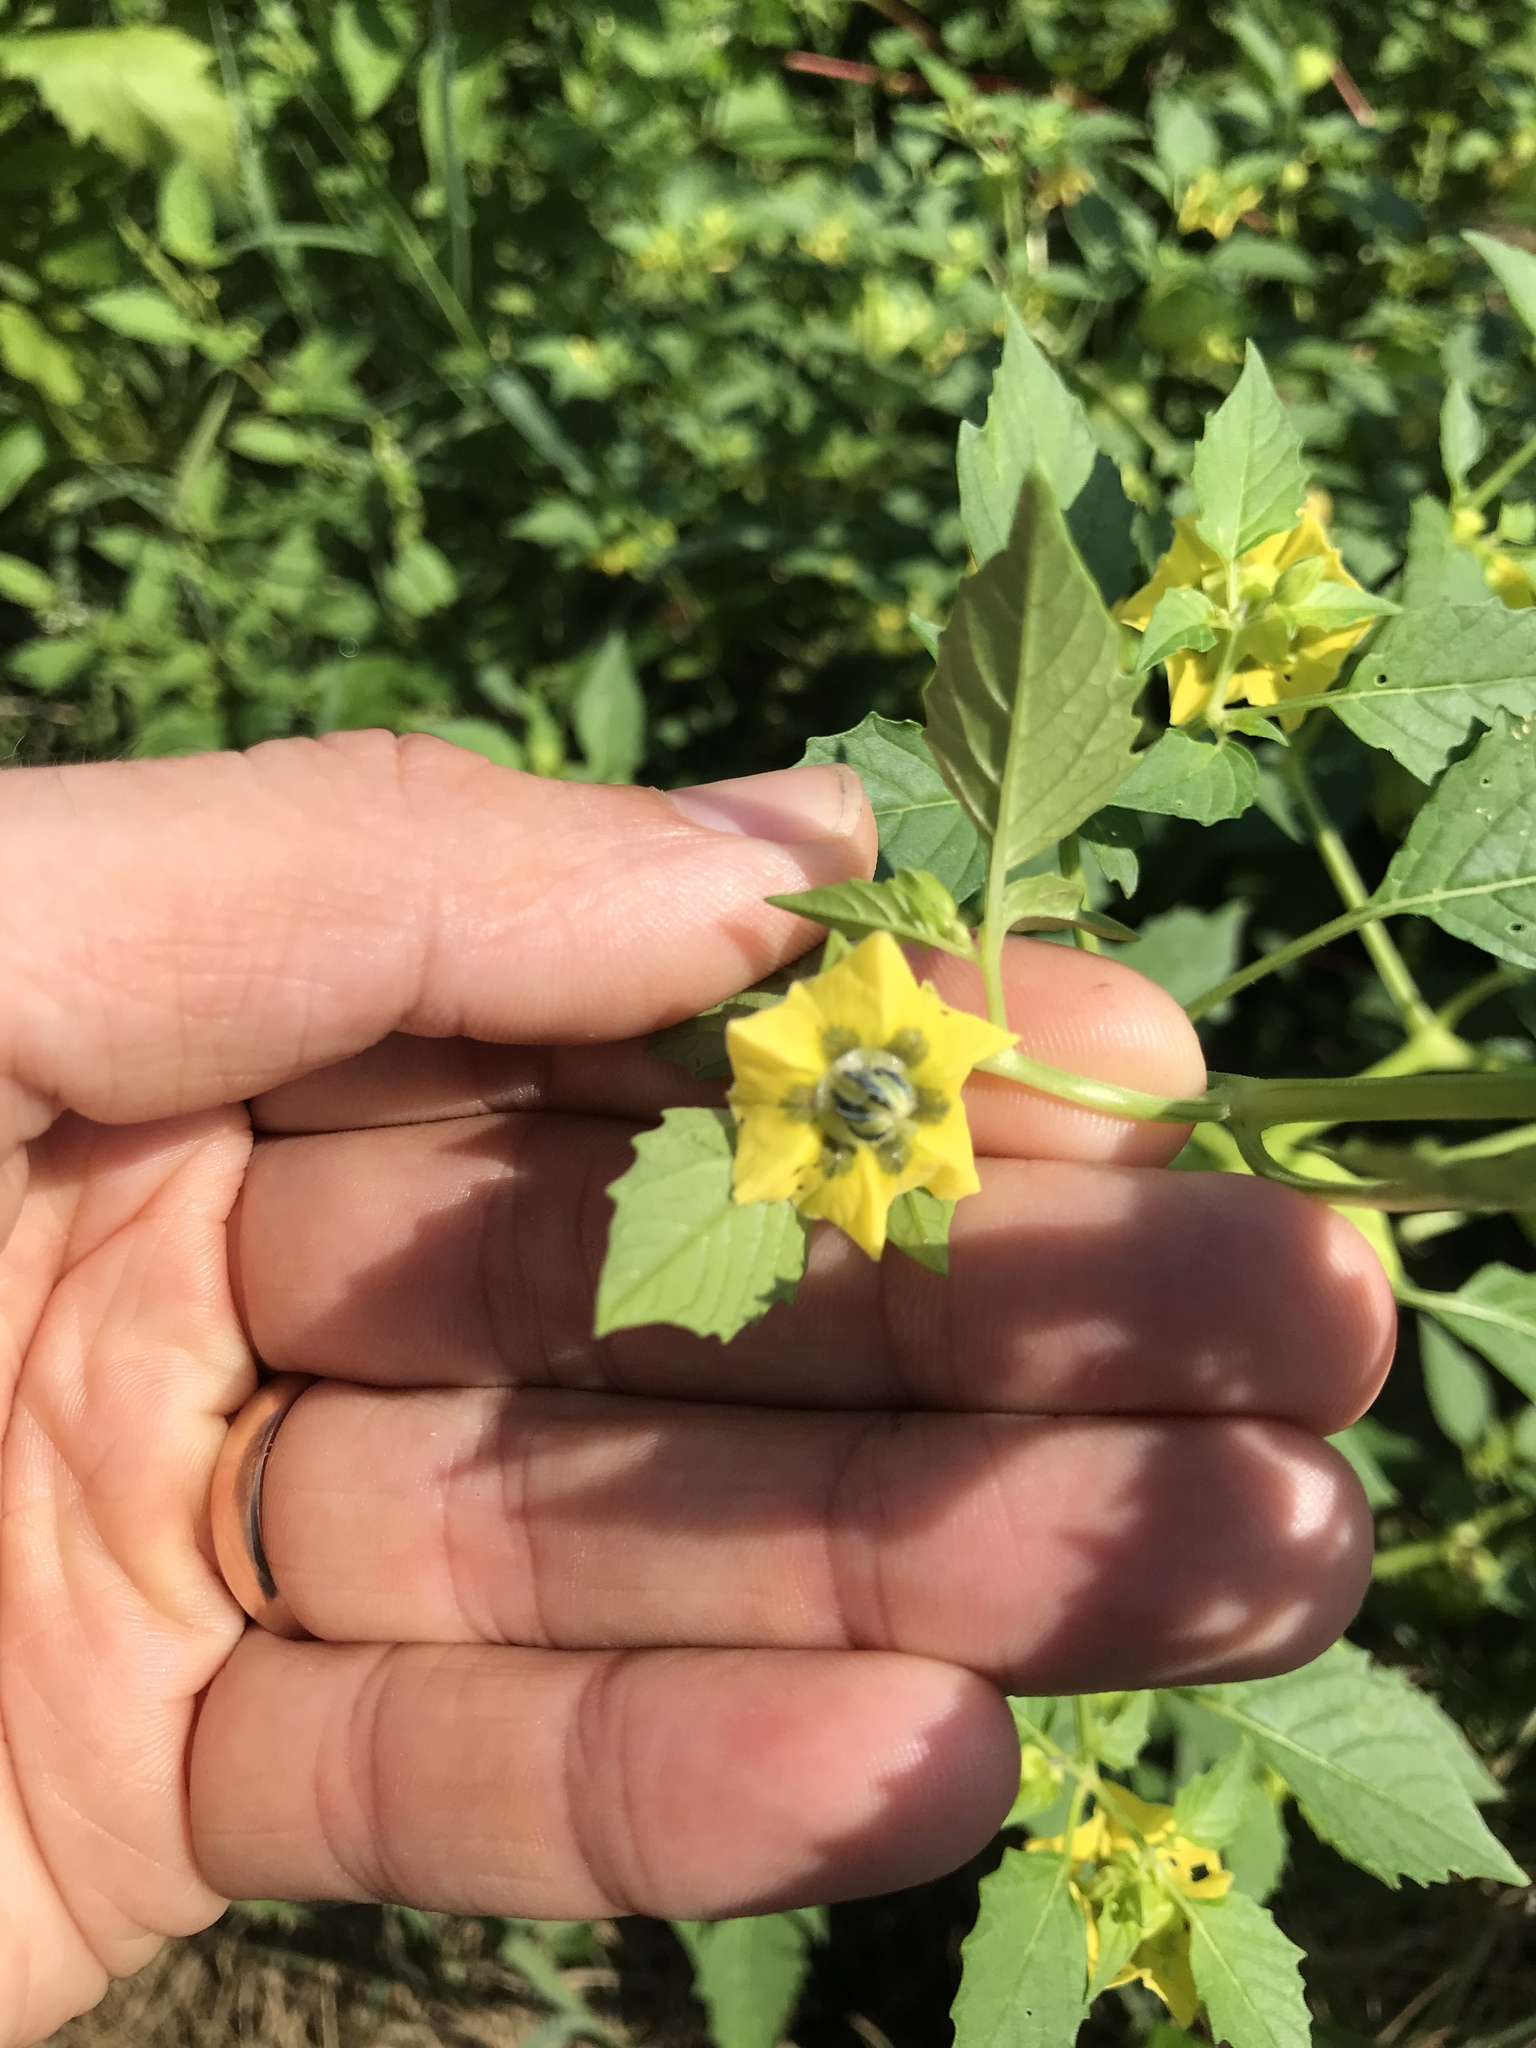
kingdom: Plantae
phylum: Tracheophyta
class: Magnoliopsida
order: Solanales
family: Solanaceae
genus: Physalis
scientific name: Physalis philadelphica
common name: Husk-tomato
